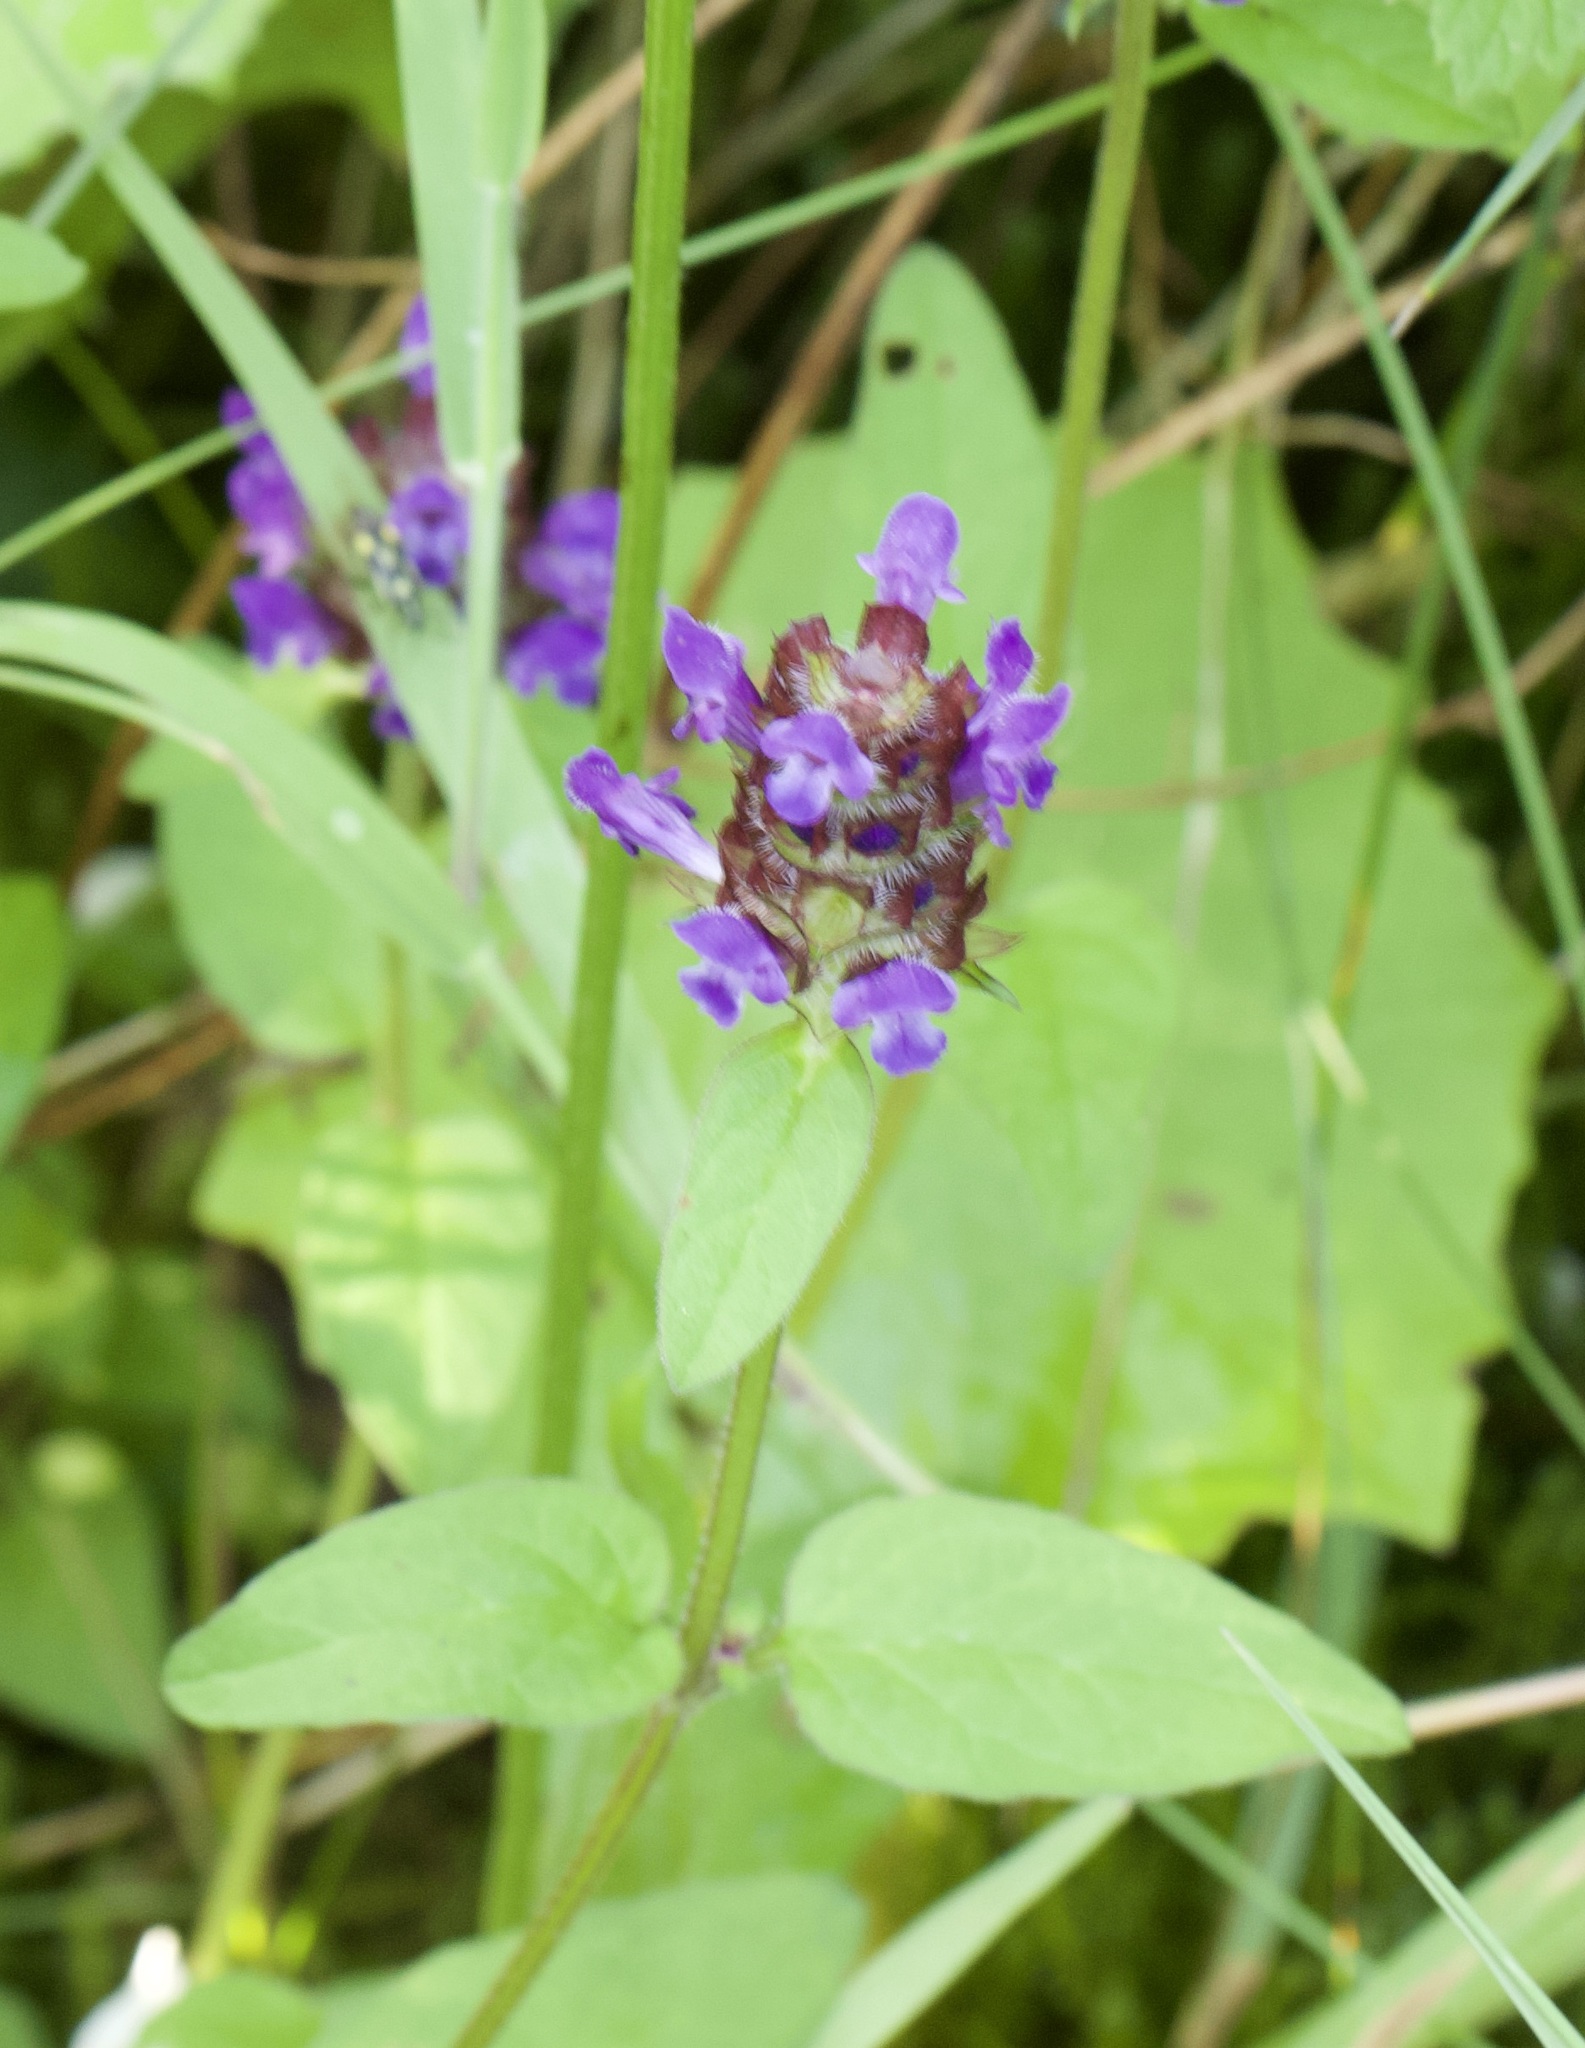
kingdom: Plantae
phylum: Tracheophyta
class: Magnoliopsida
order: Lamiales
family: Lamiaceae
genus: Prunella
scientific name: Prunella vulgaris
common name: Heal-all
